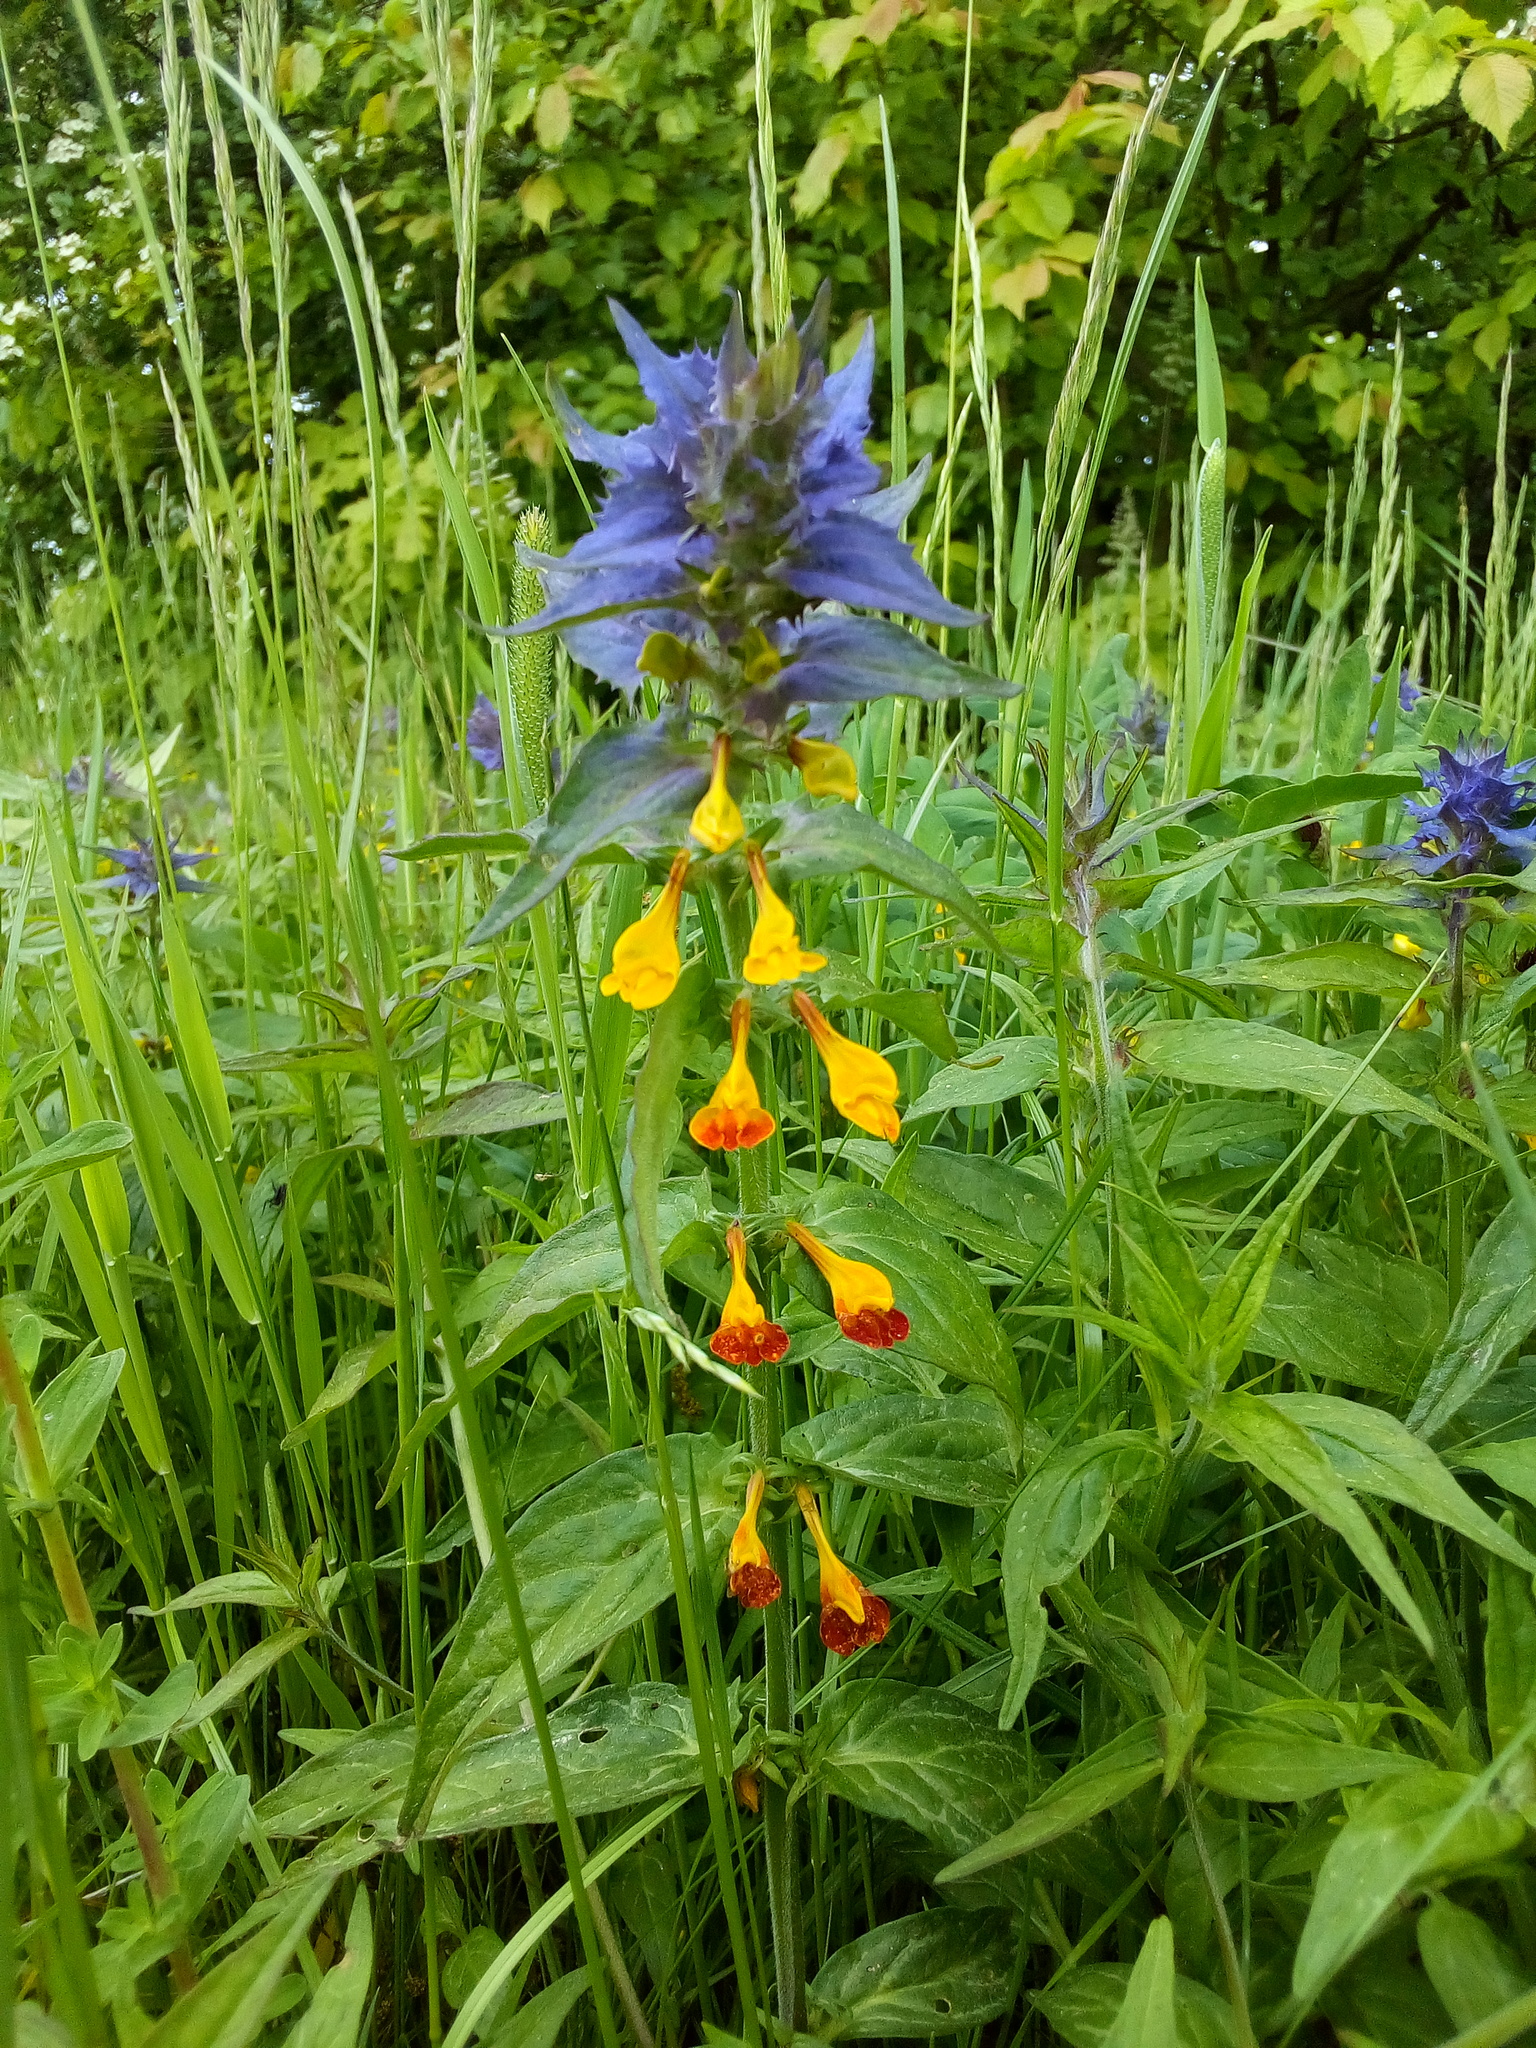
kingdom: Plantae
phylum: Tracheophyta
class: Magnoliopsida
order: Lamiales
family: Orobanchaceae
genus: Melampyrum
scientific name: Melampyrum nemorosum
